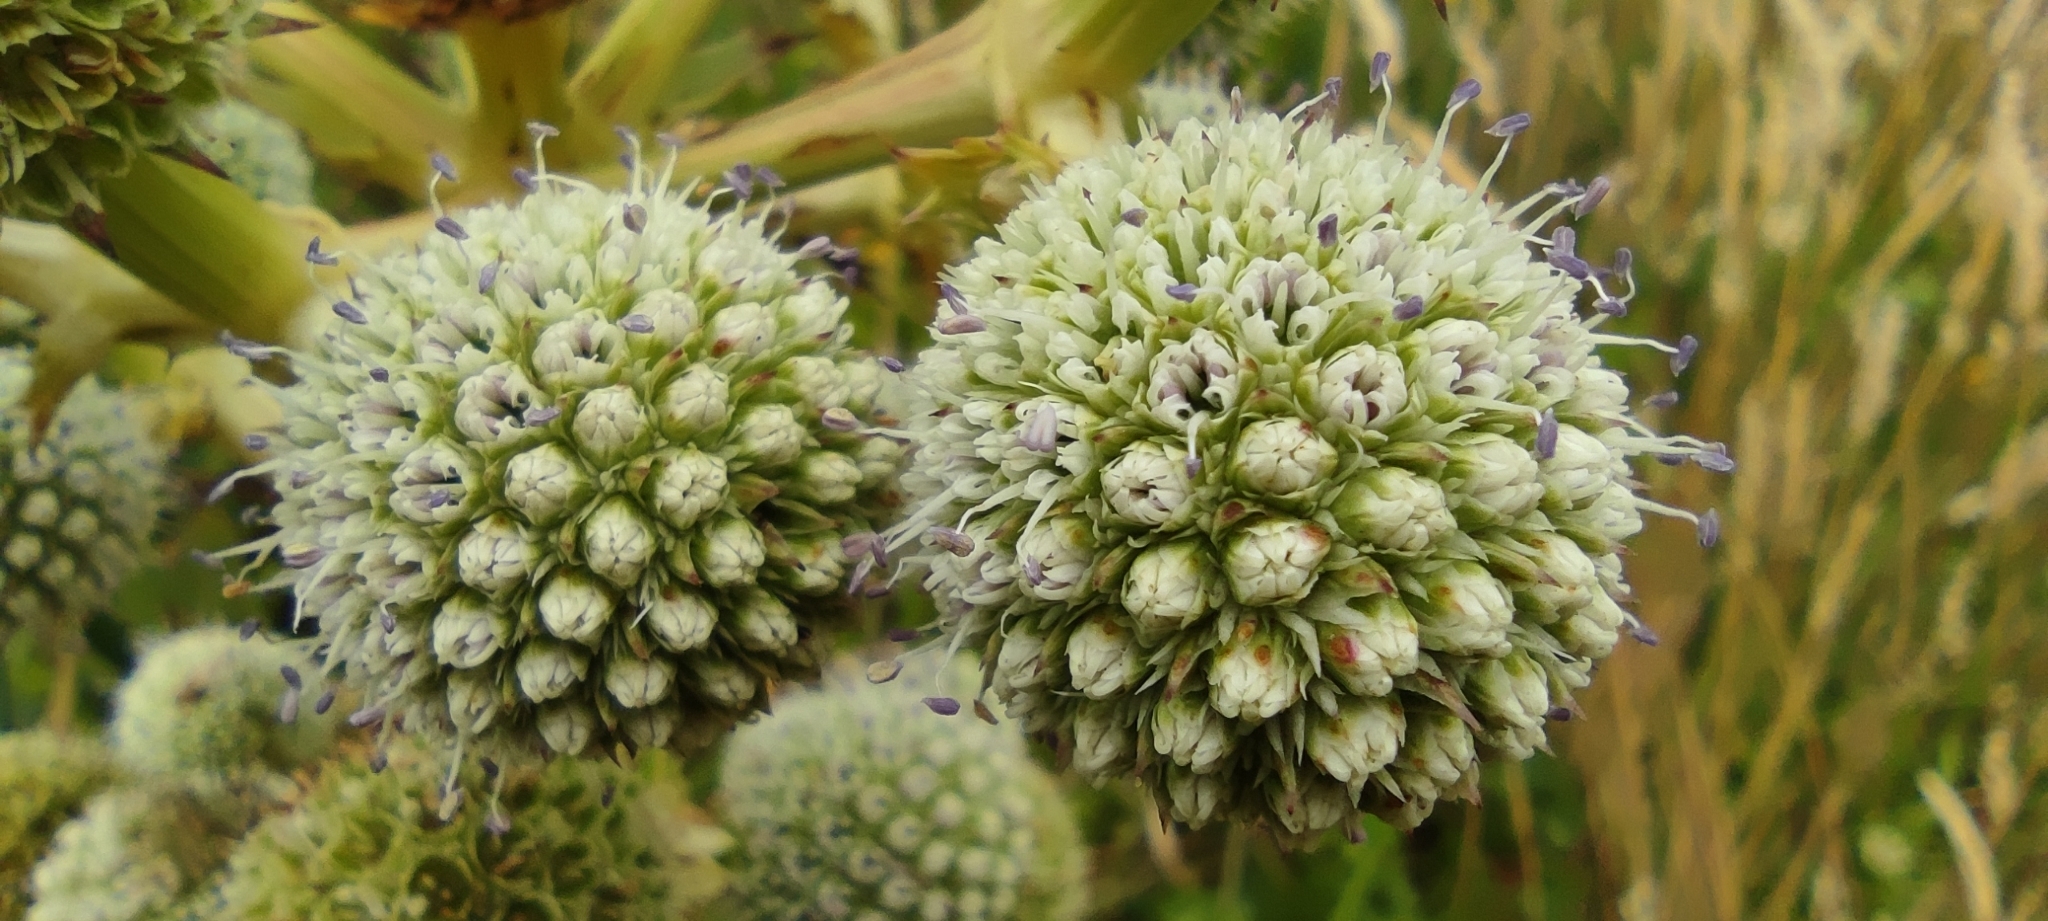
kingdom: Plantae
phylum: Tracheophyta
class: Magnoliopsida
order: Apiales
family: Apiaceae
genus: Eryngium
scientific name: Eryngium humboldtii
